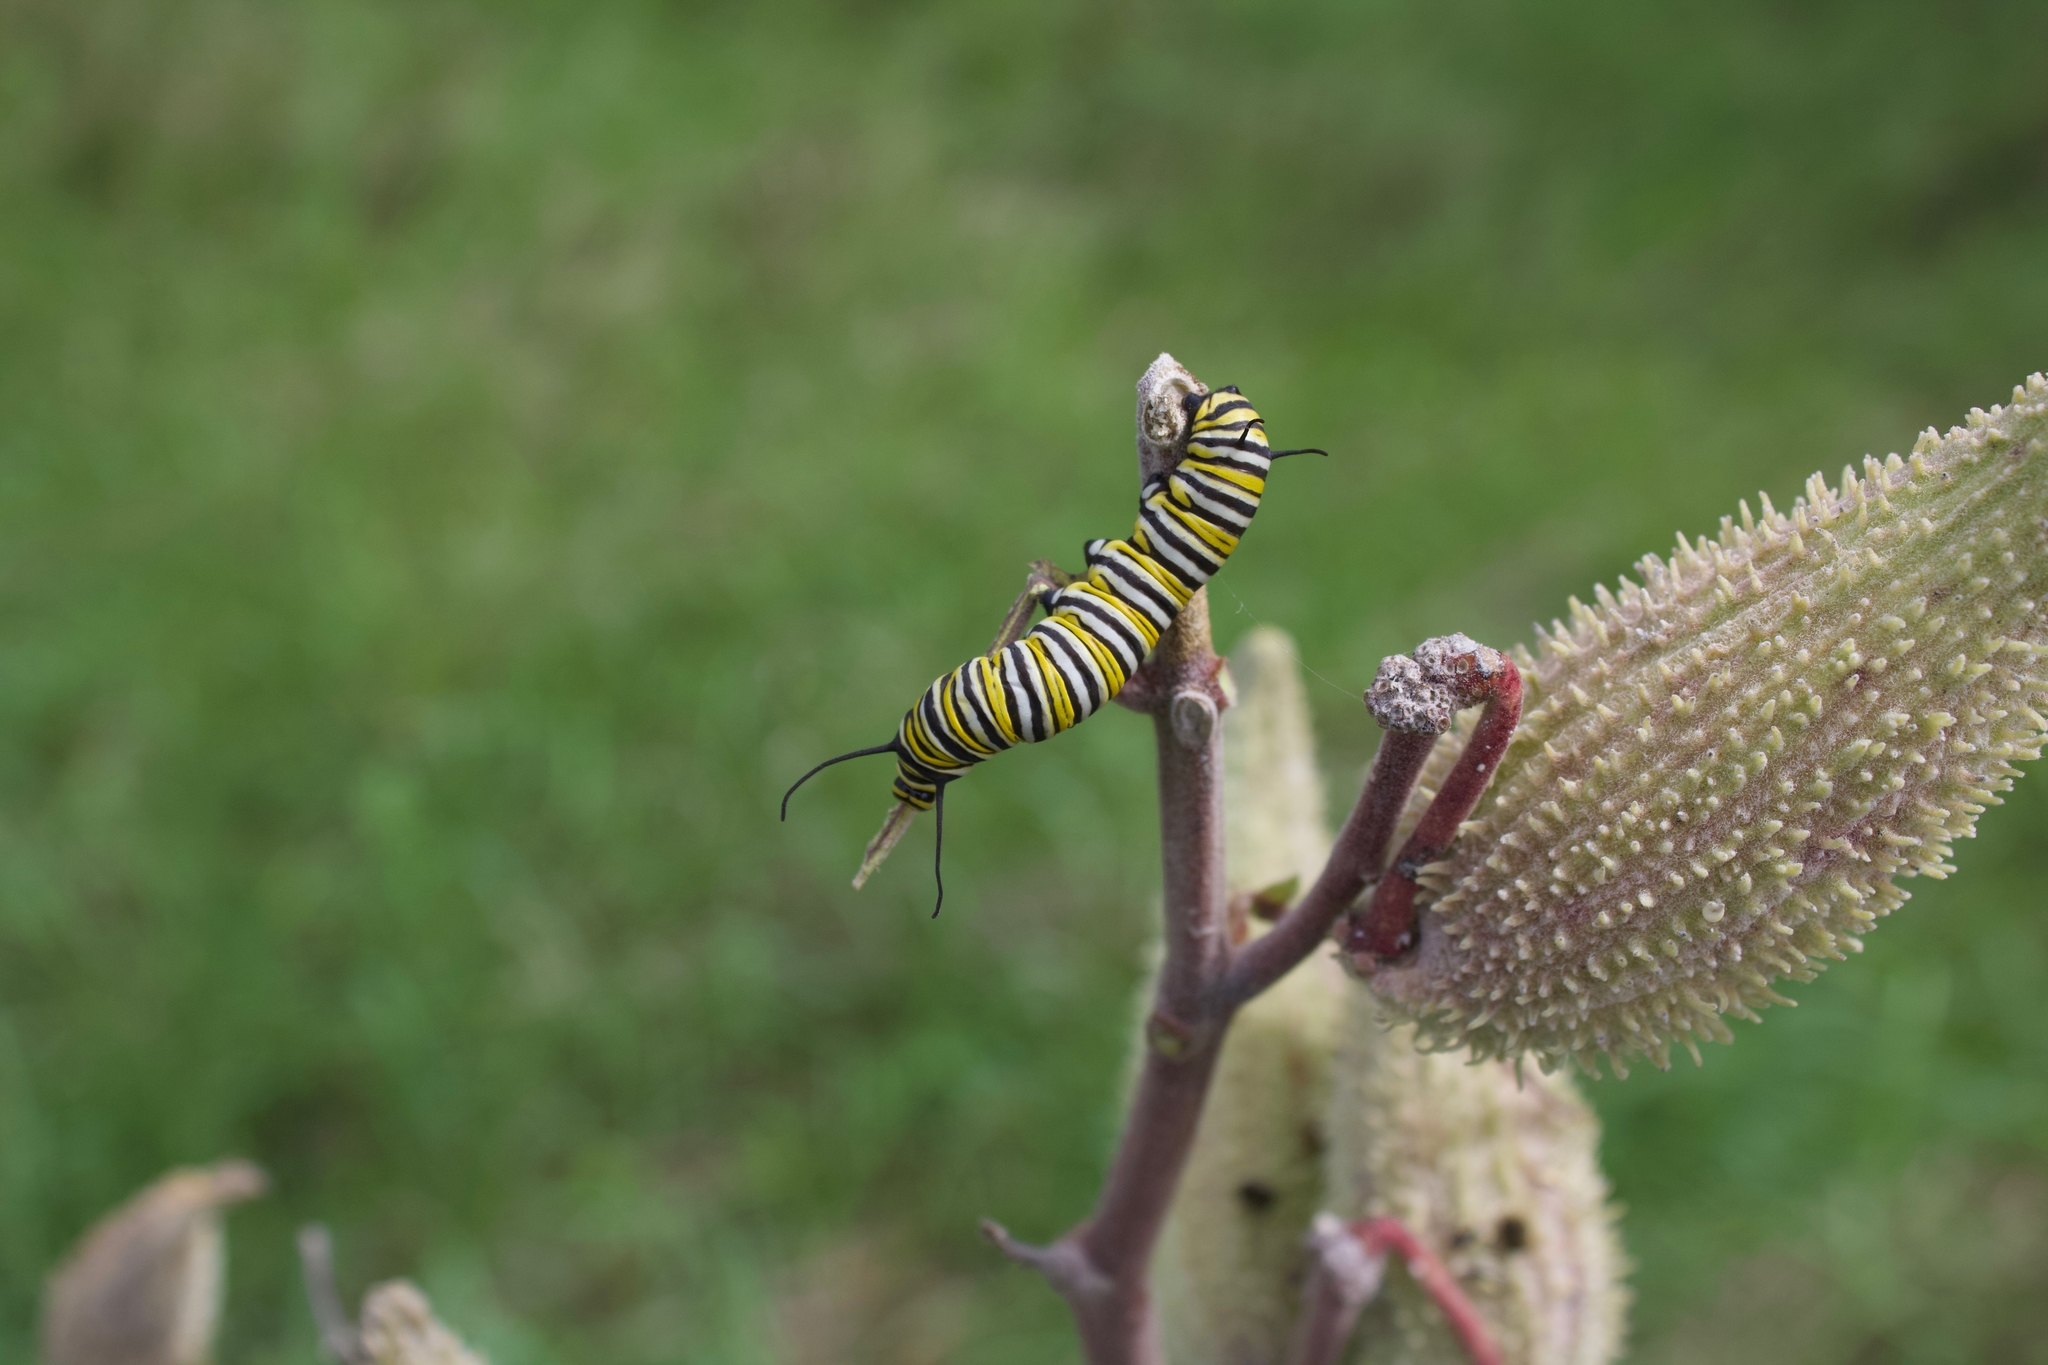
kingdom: Animalia
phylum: Arthropoda
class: Insecta
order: Lepidoptera
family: Nymphalidae
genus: Danaus
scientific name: Danaus plexippus
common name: Monarch
